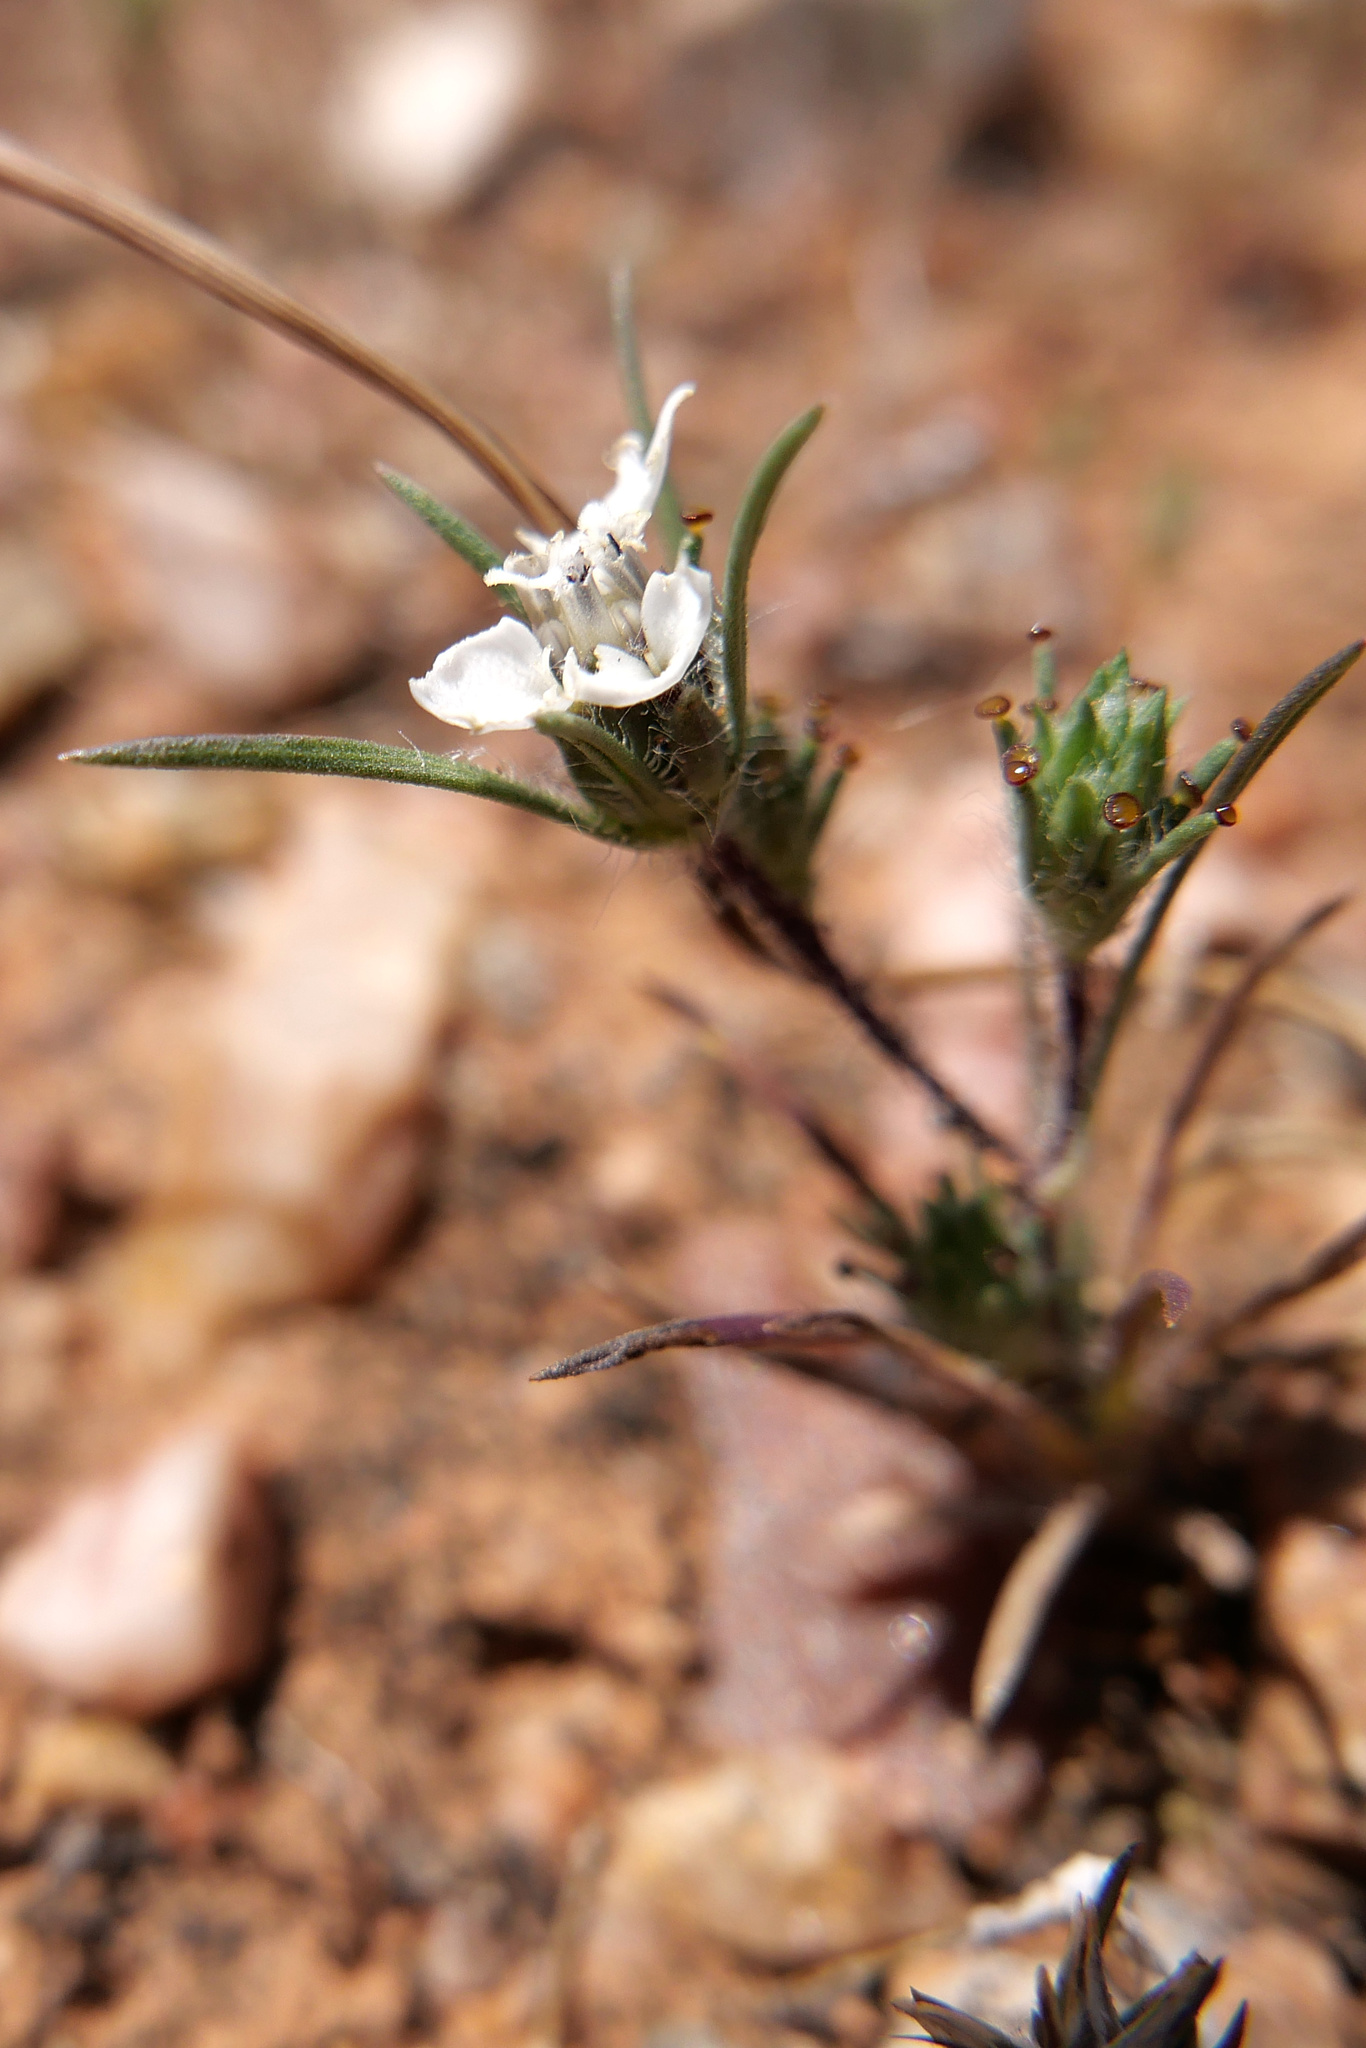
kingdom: Plantae
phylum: Tracheophyta
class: Magnoliopsida
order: Asterales
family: Asteraceae
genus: Calycadenia
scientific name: Calycadenia villosa
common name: Dwarf calycadenia
